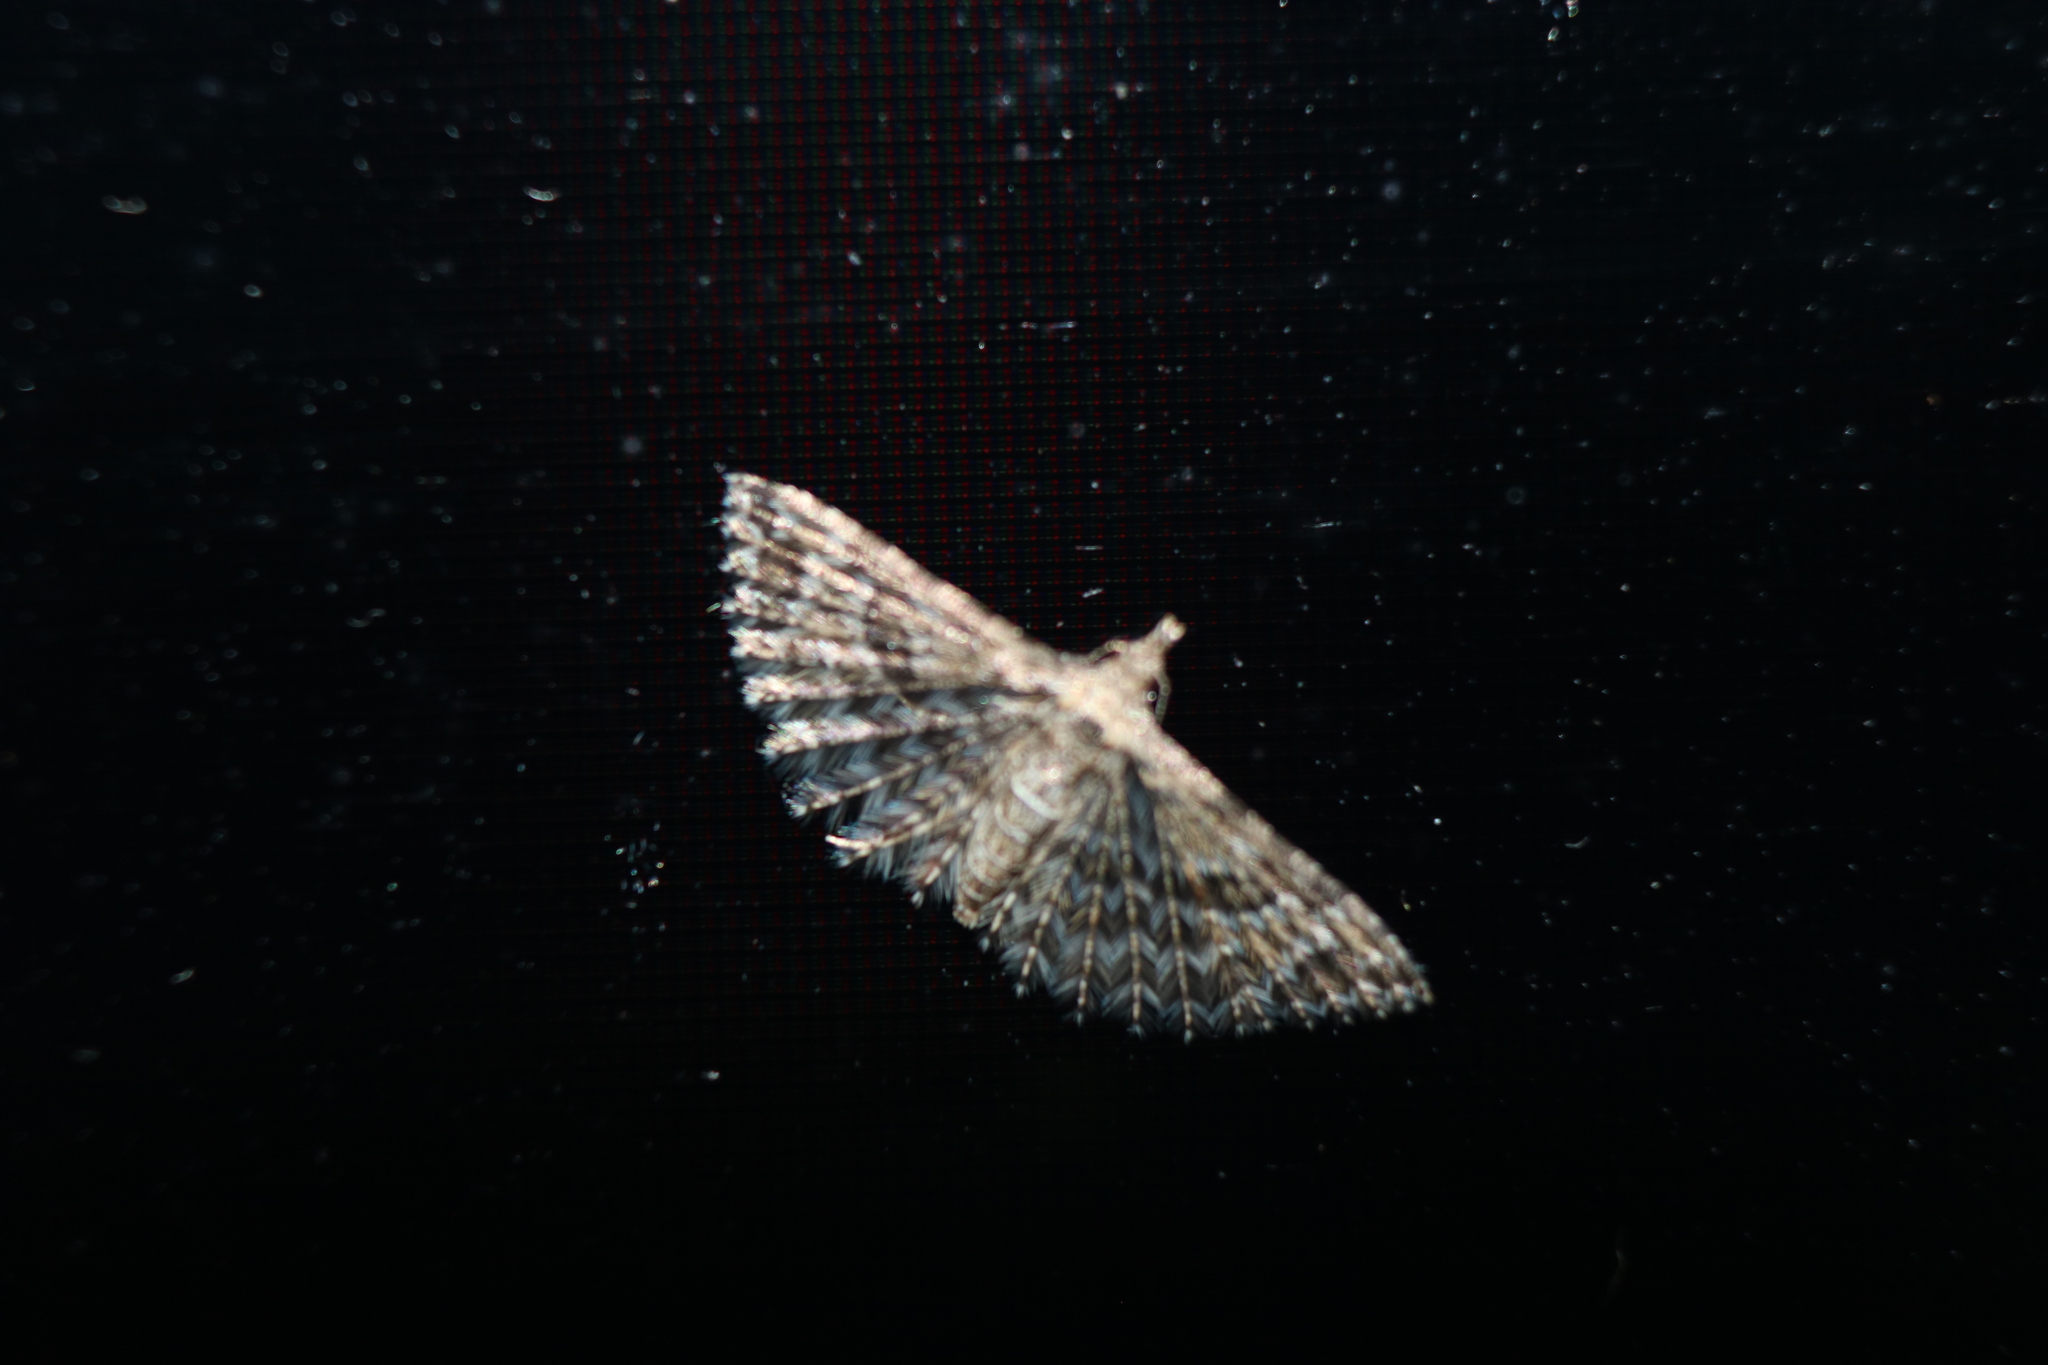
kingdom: Animalia
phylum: Arthropoda
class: Insecta
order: Lepidoptera
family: Alucitidae
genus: Alucita
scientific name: Alucita montana
